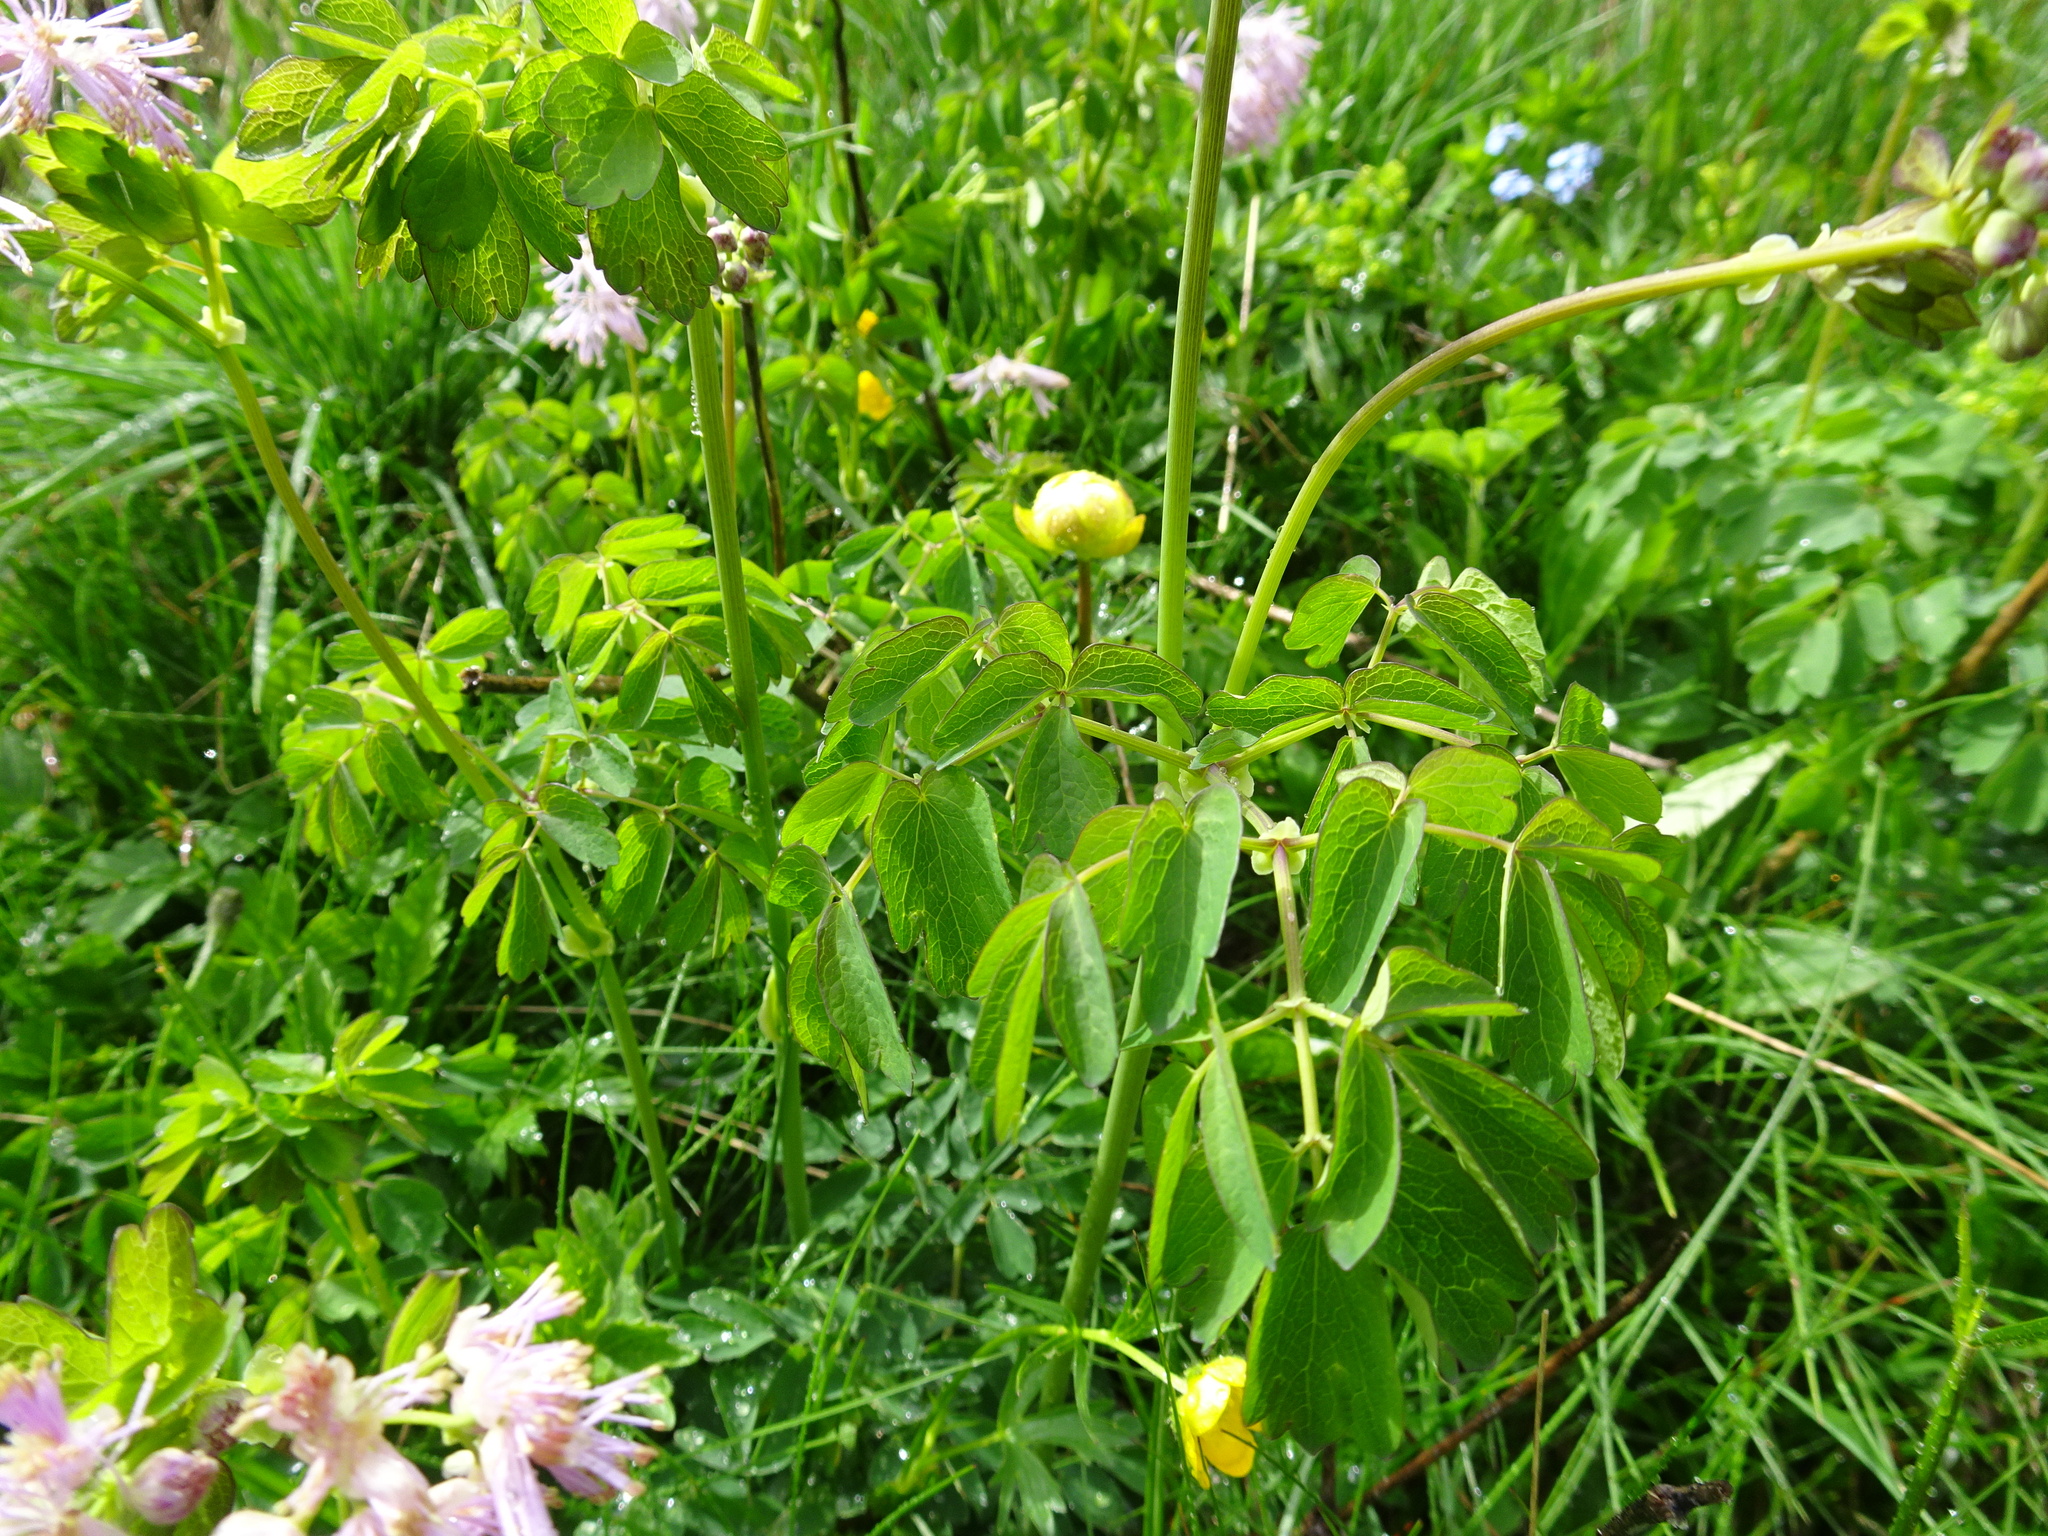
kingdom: Plantae
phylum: Tracheophyta
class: Magnoliopsida
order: Ranunculales
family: Ranunculaceae
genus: Thalictrum
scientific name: Thalictrum aquilegiifolium
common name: French meadow-rue
